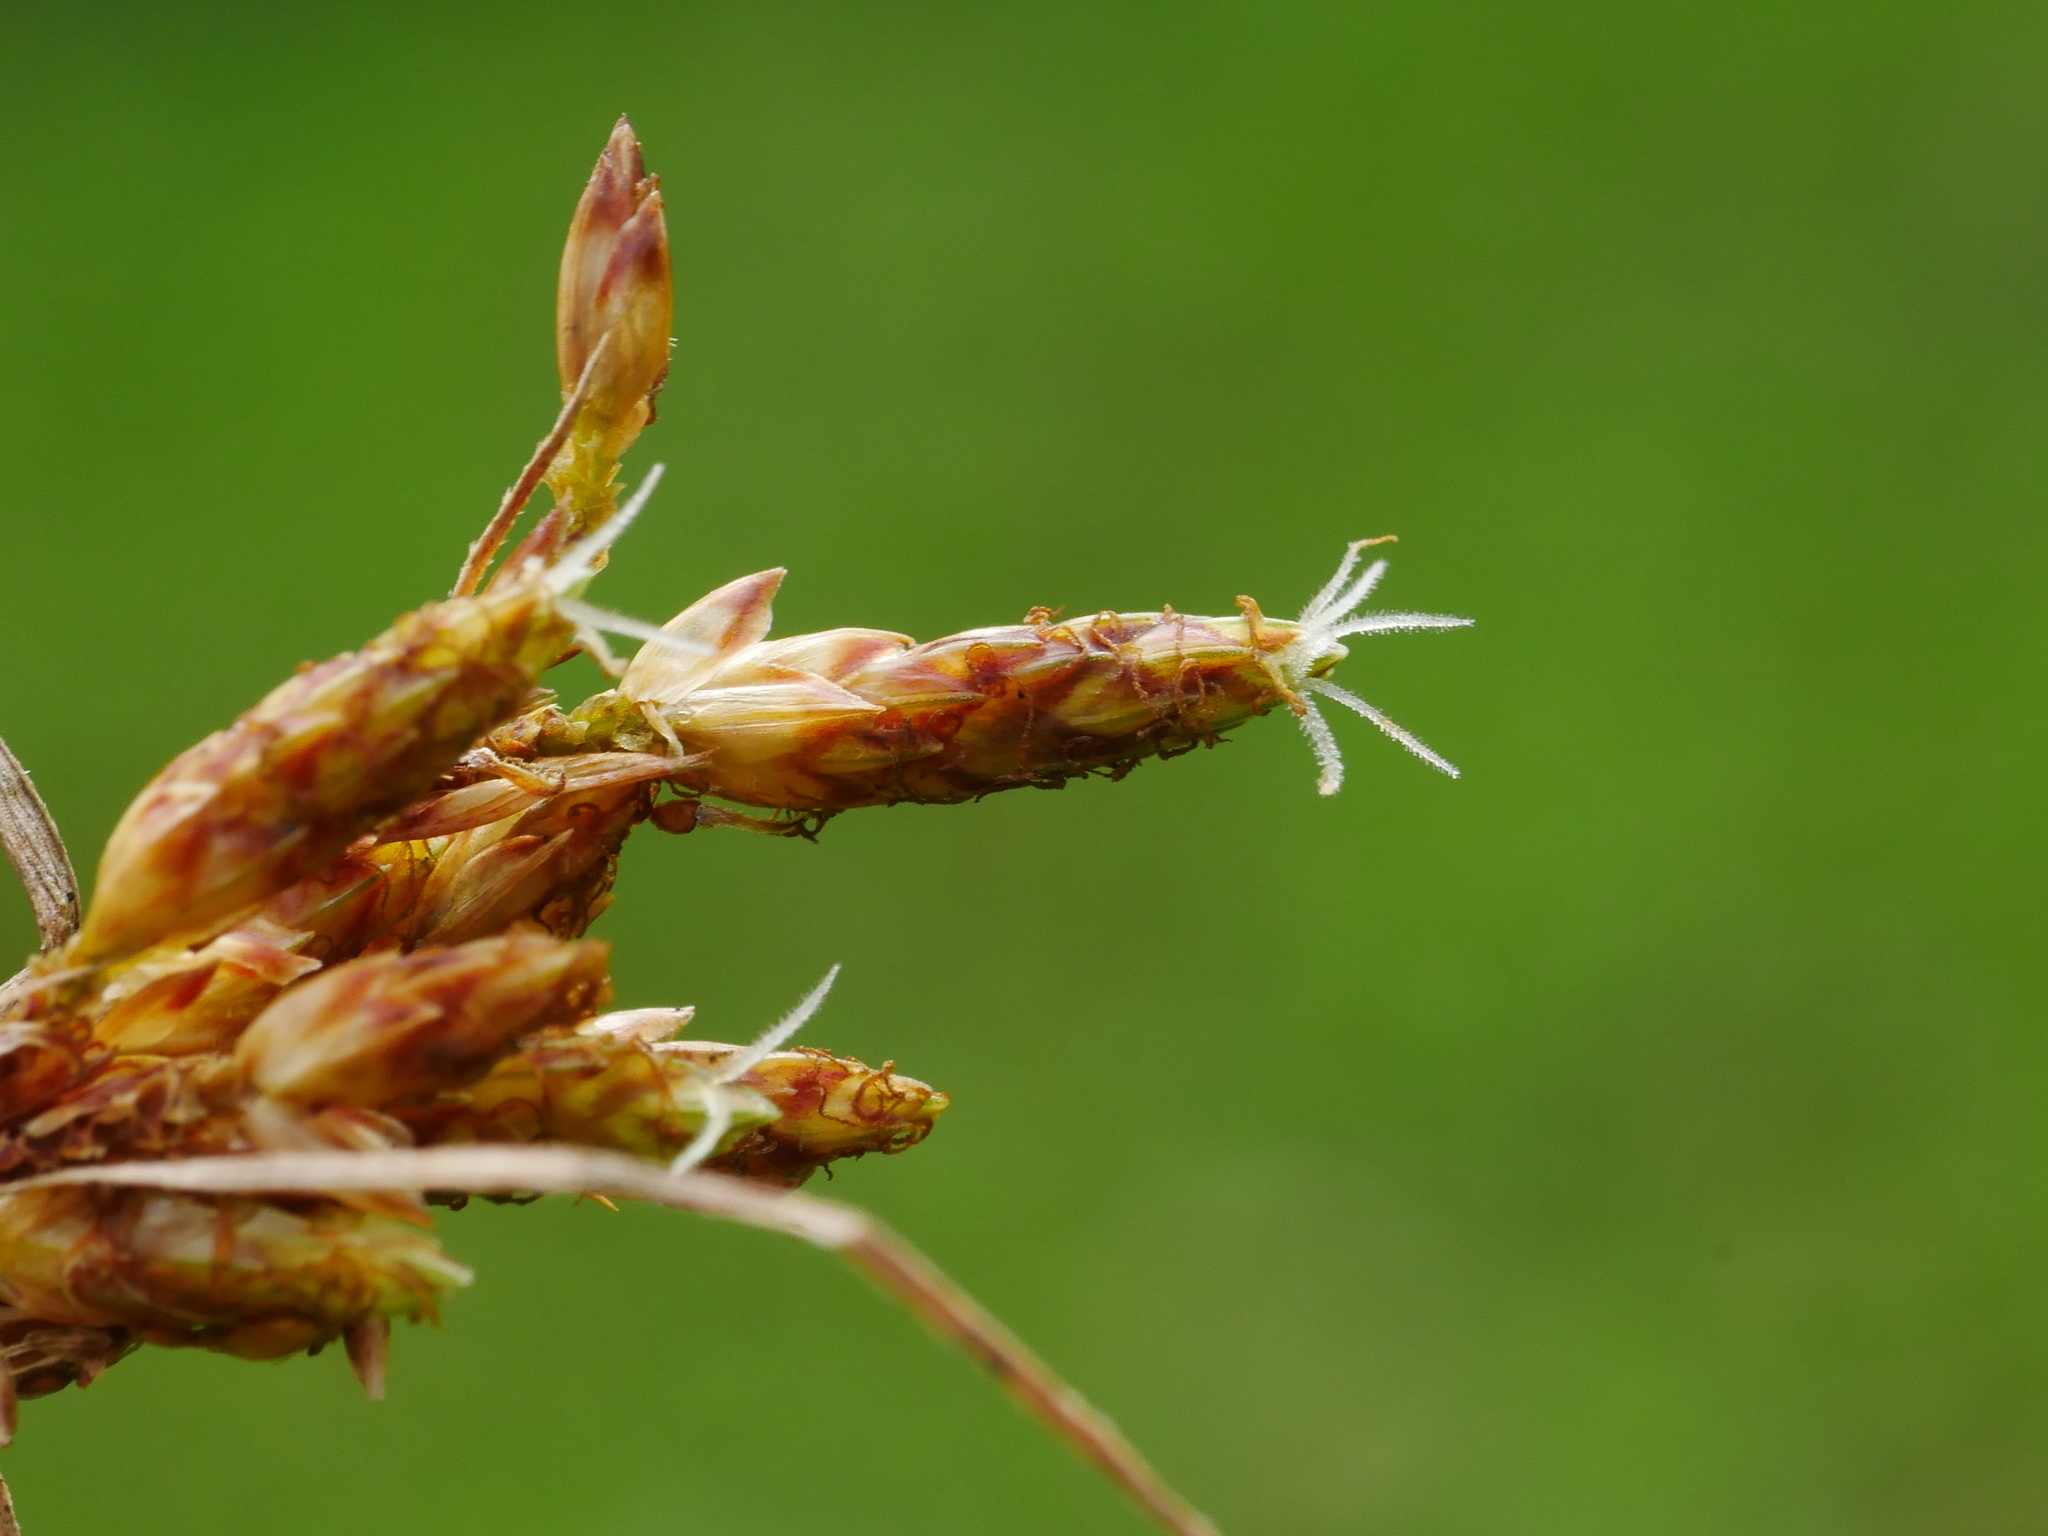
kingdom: Plantae
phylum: Tracheophyta
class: Liliopsida
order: Poales
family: Cyperaceae
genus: Fimbristylis
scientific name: Fimbristylis dichotoma
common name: Forked fimbry
